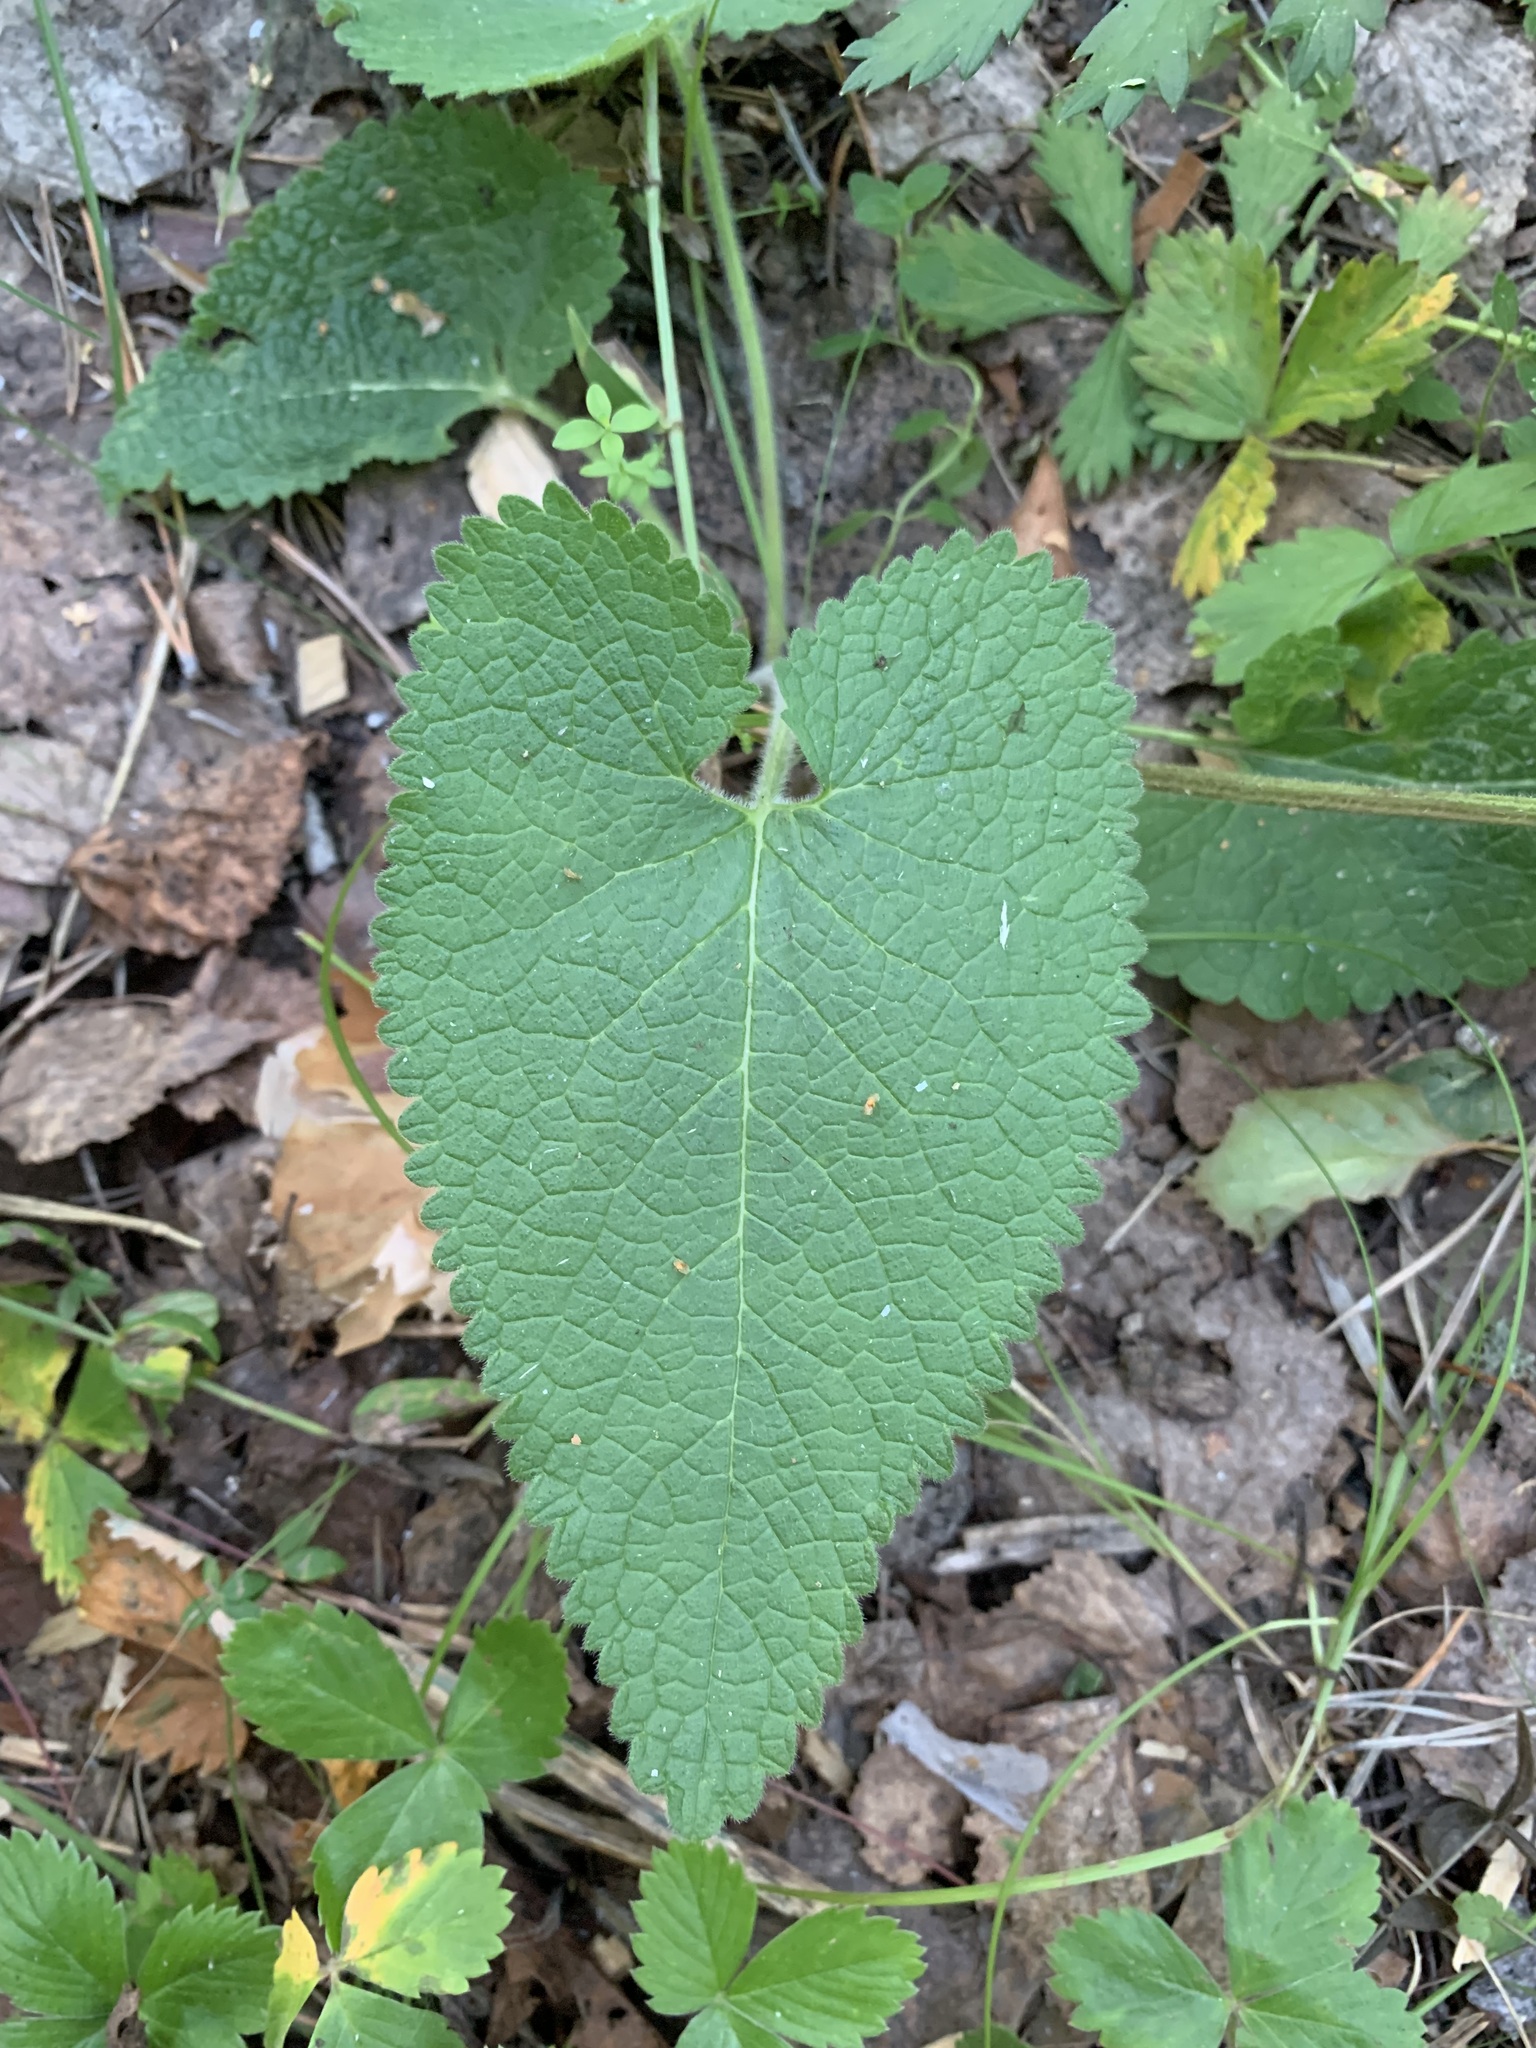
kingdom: Plantae
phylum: Tracheophyta
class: Magnoliopsida
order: Lamiales
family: Lamiaceae
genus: Phlomoides
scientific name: Phlomoides tuberosa
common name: Tuberous jerusalem sage
